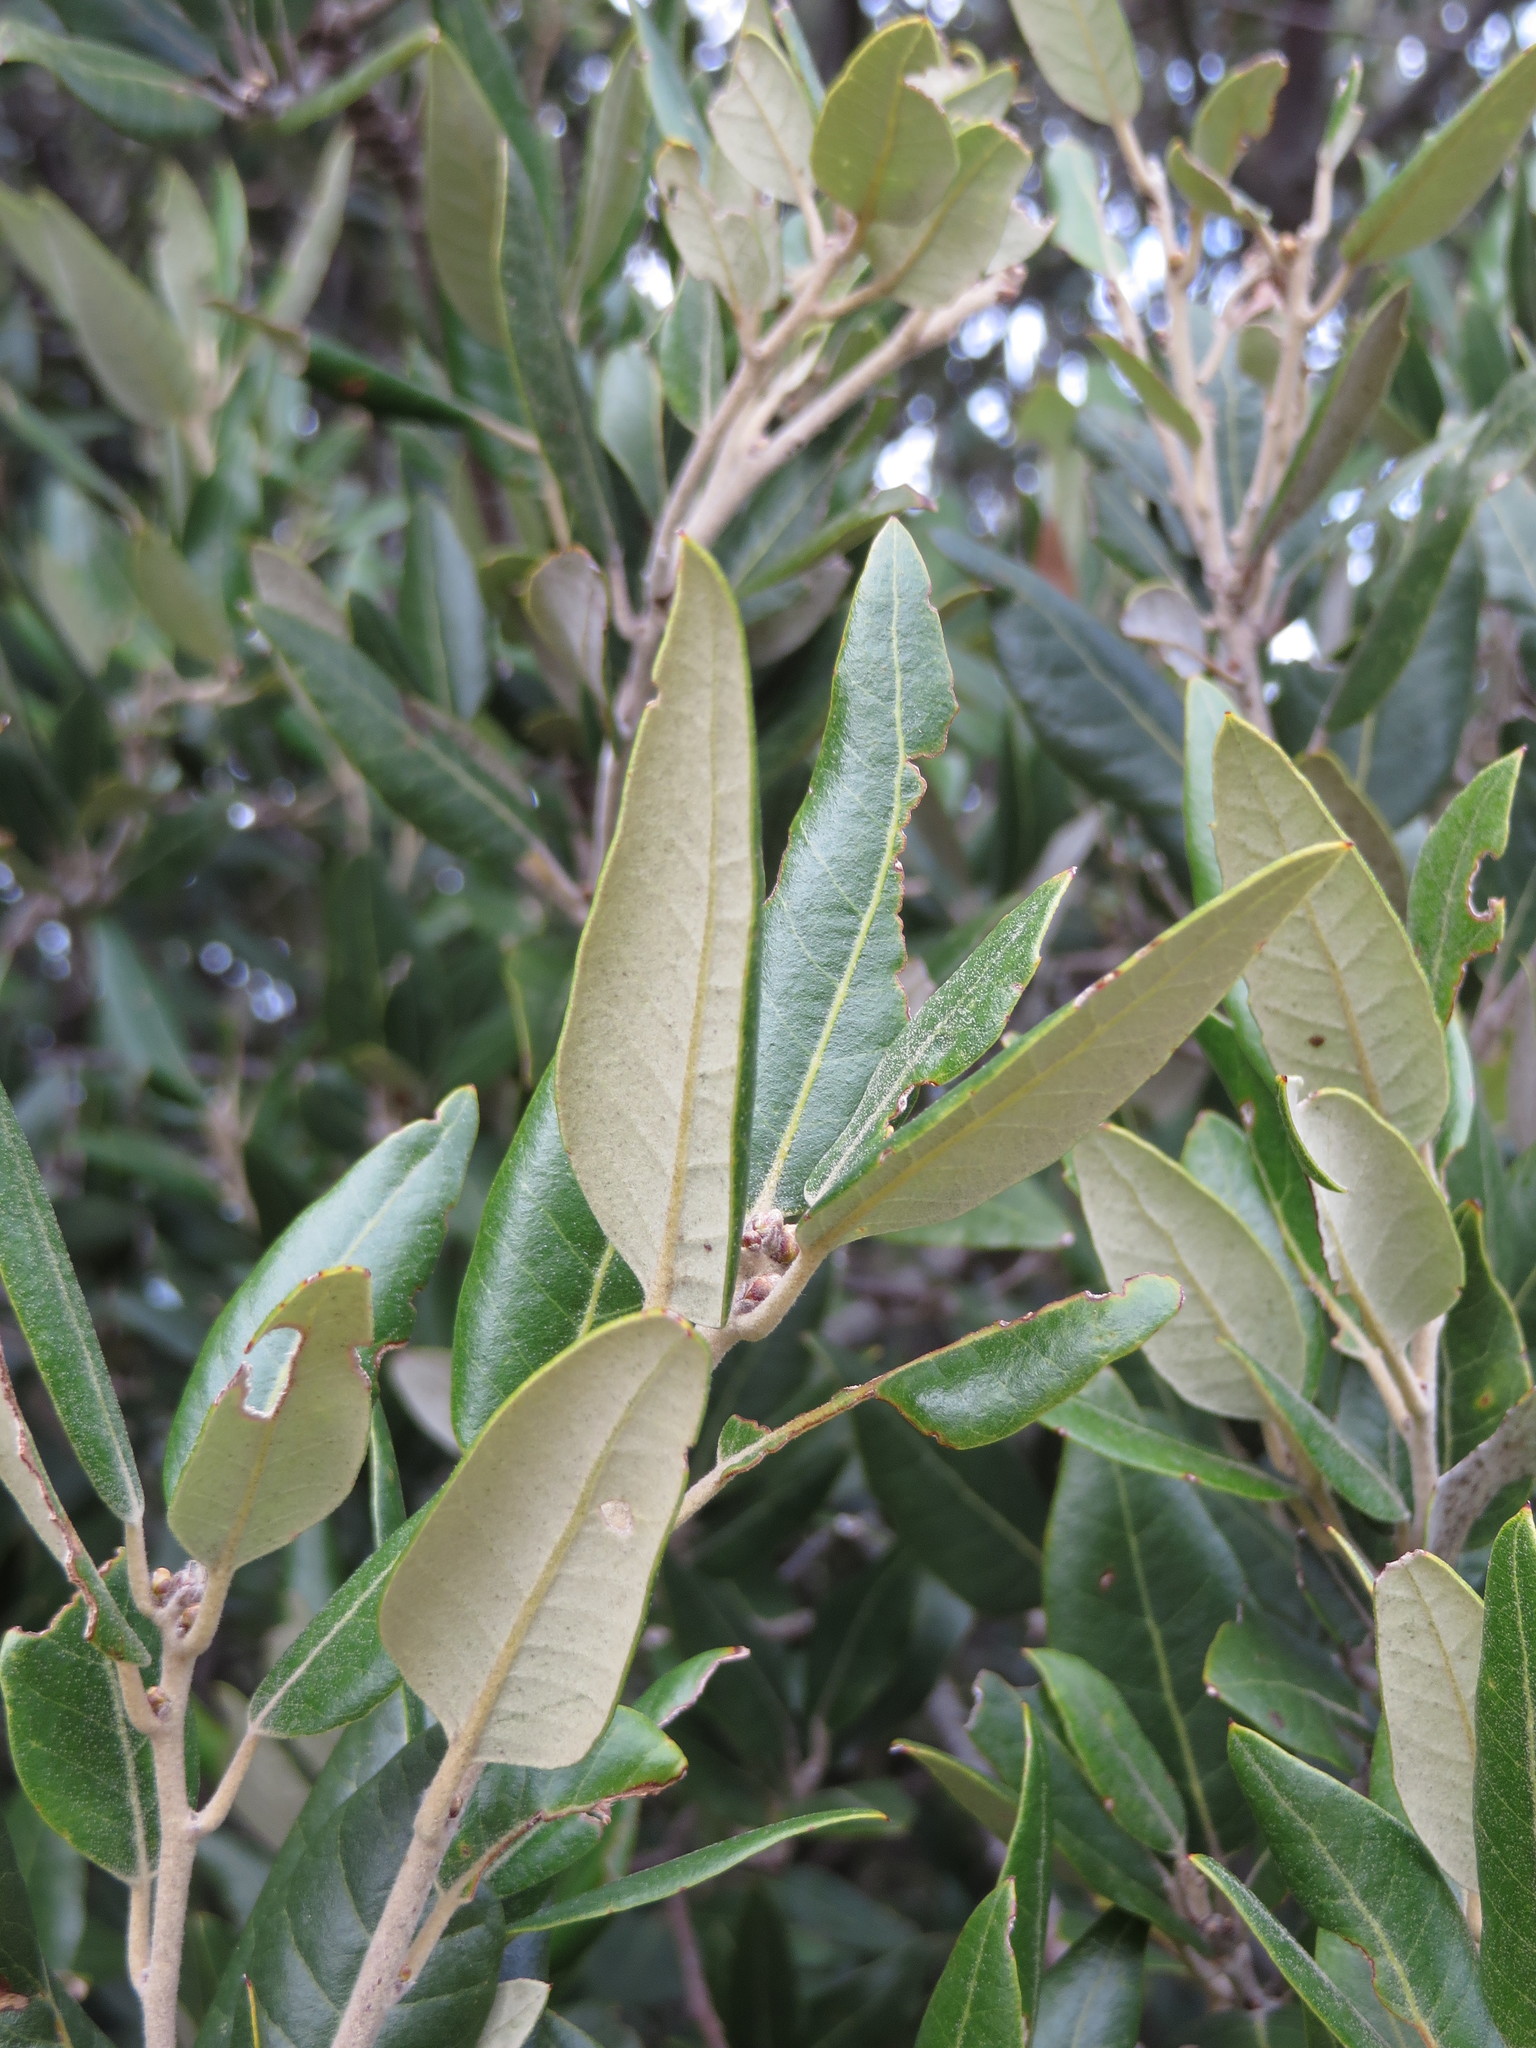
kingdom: Plantae
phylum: Tracheophyta
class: Magnoliopsida
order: Fagales
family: Fagaceae
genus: Quercus
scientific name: Quercus ilex
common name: Evergreen oak
